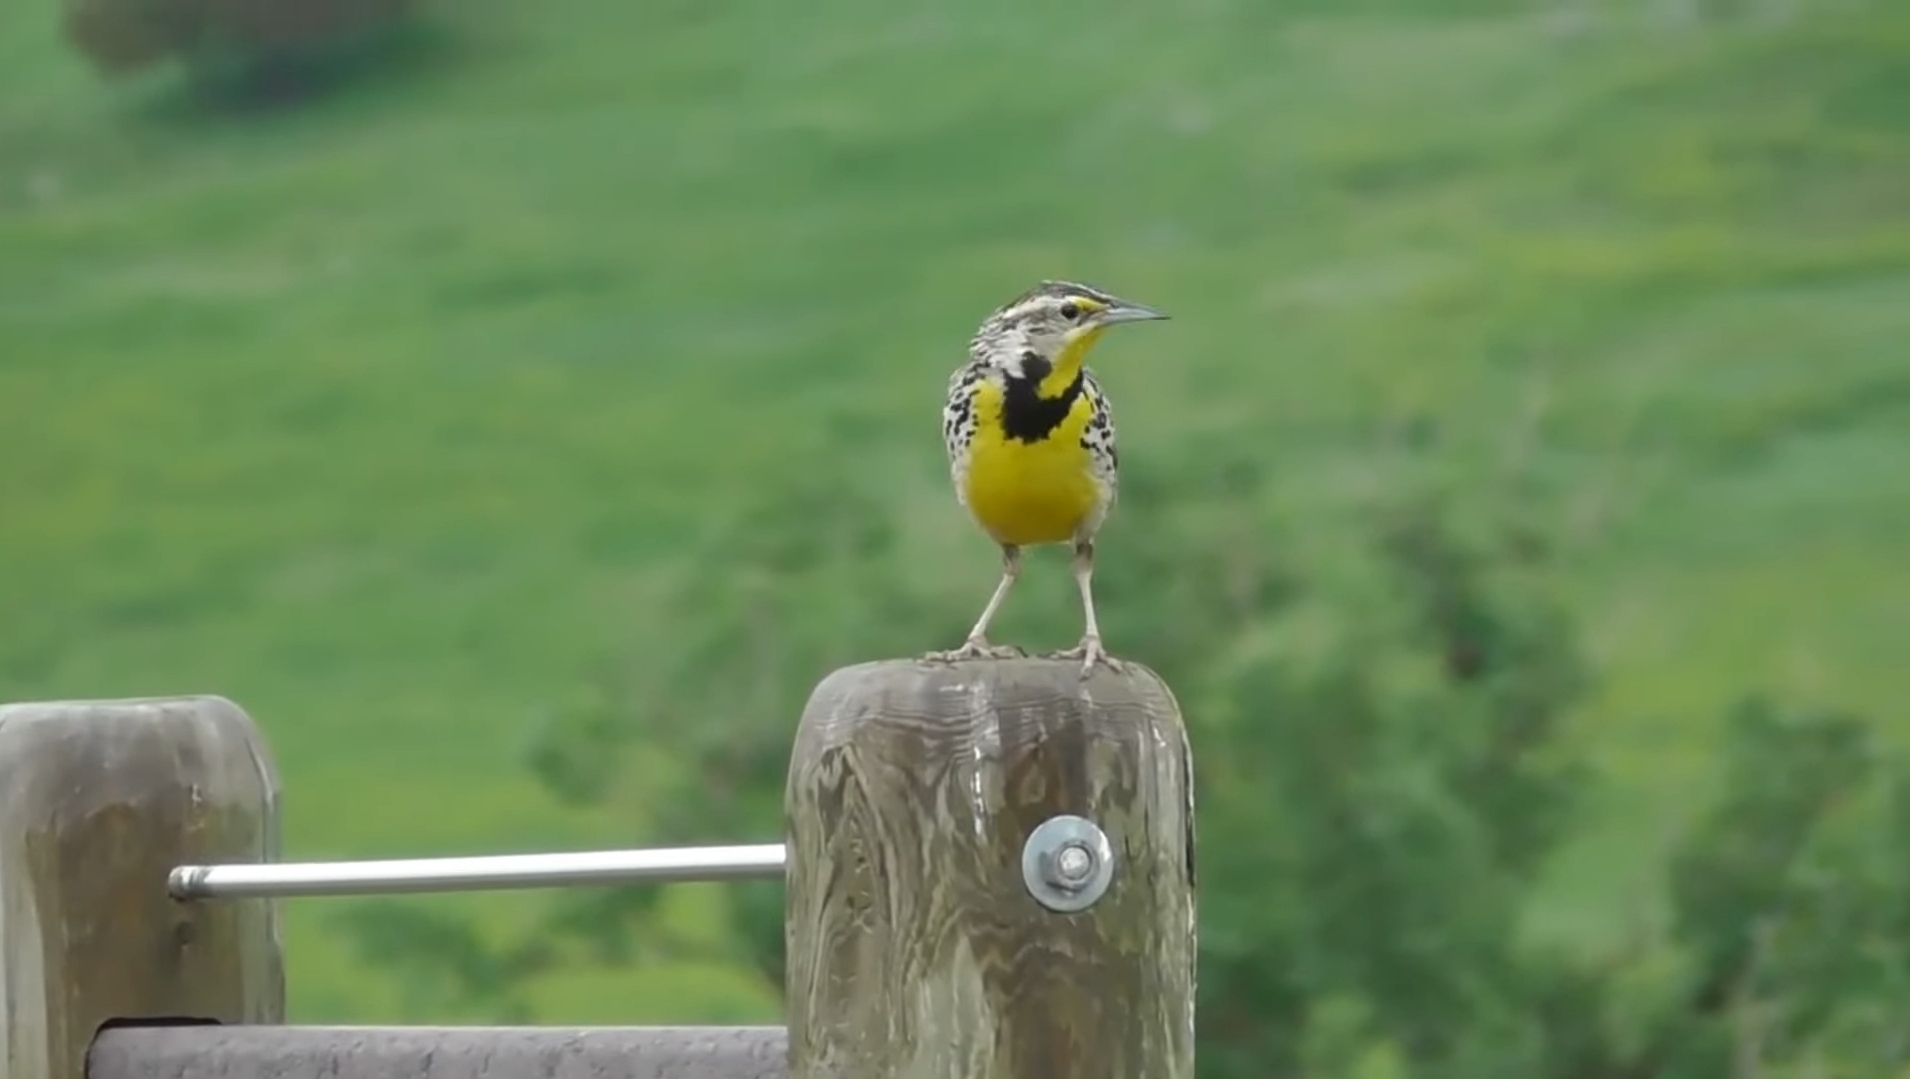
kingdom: Animalia
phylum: Chordata
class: Aves
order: Passeriformes
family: Icteridae
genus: Sturnella
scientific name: Sturnella neglecta
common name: Western meadowlark
